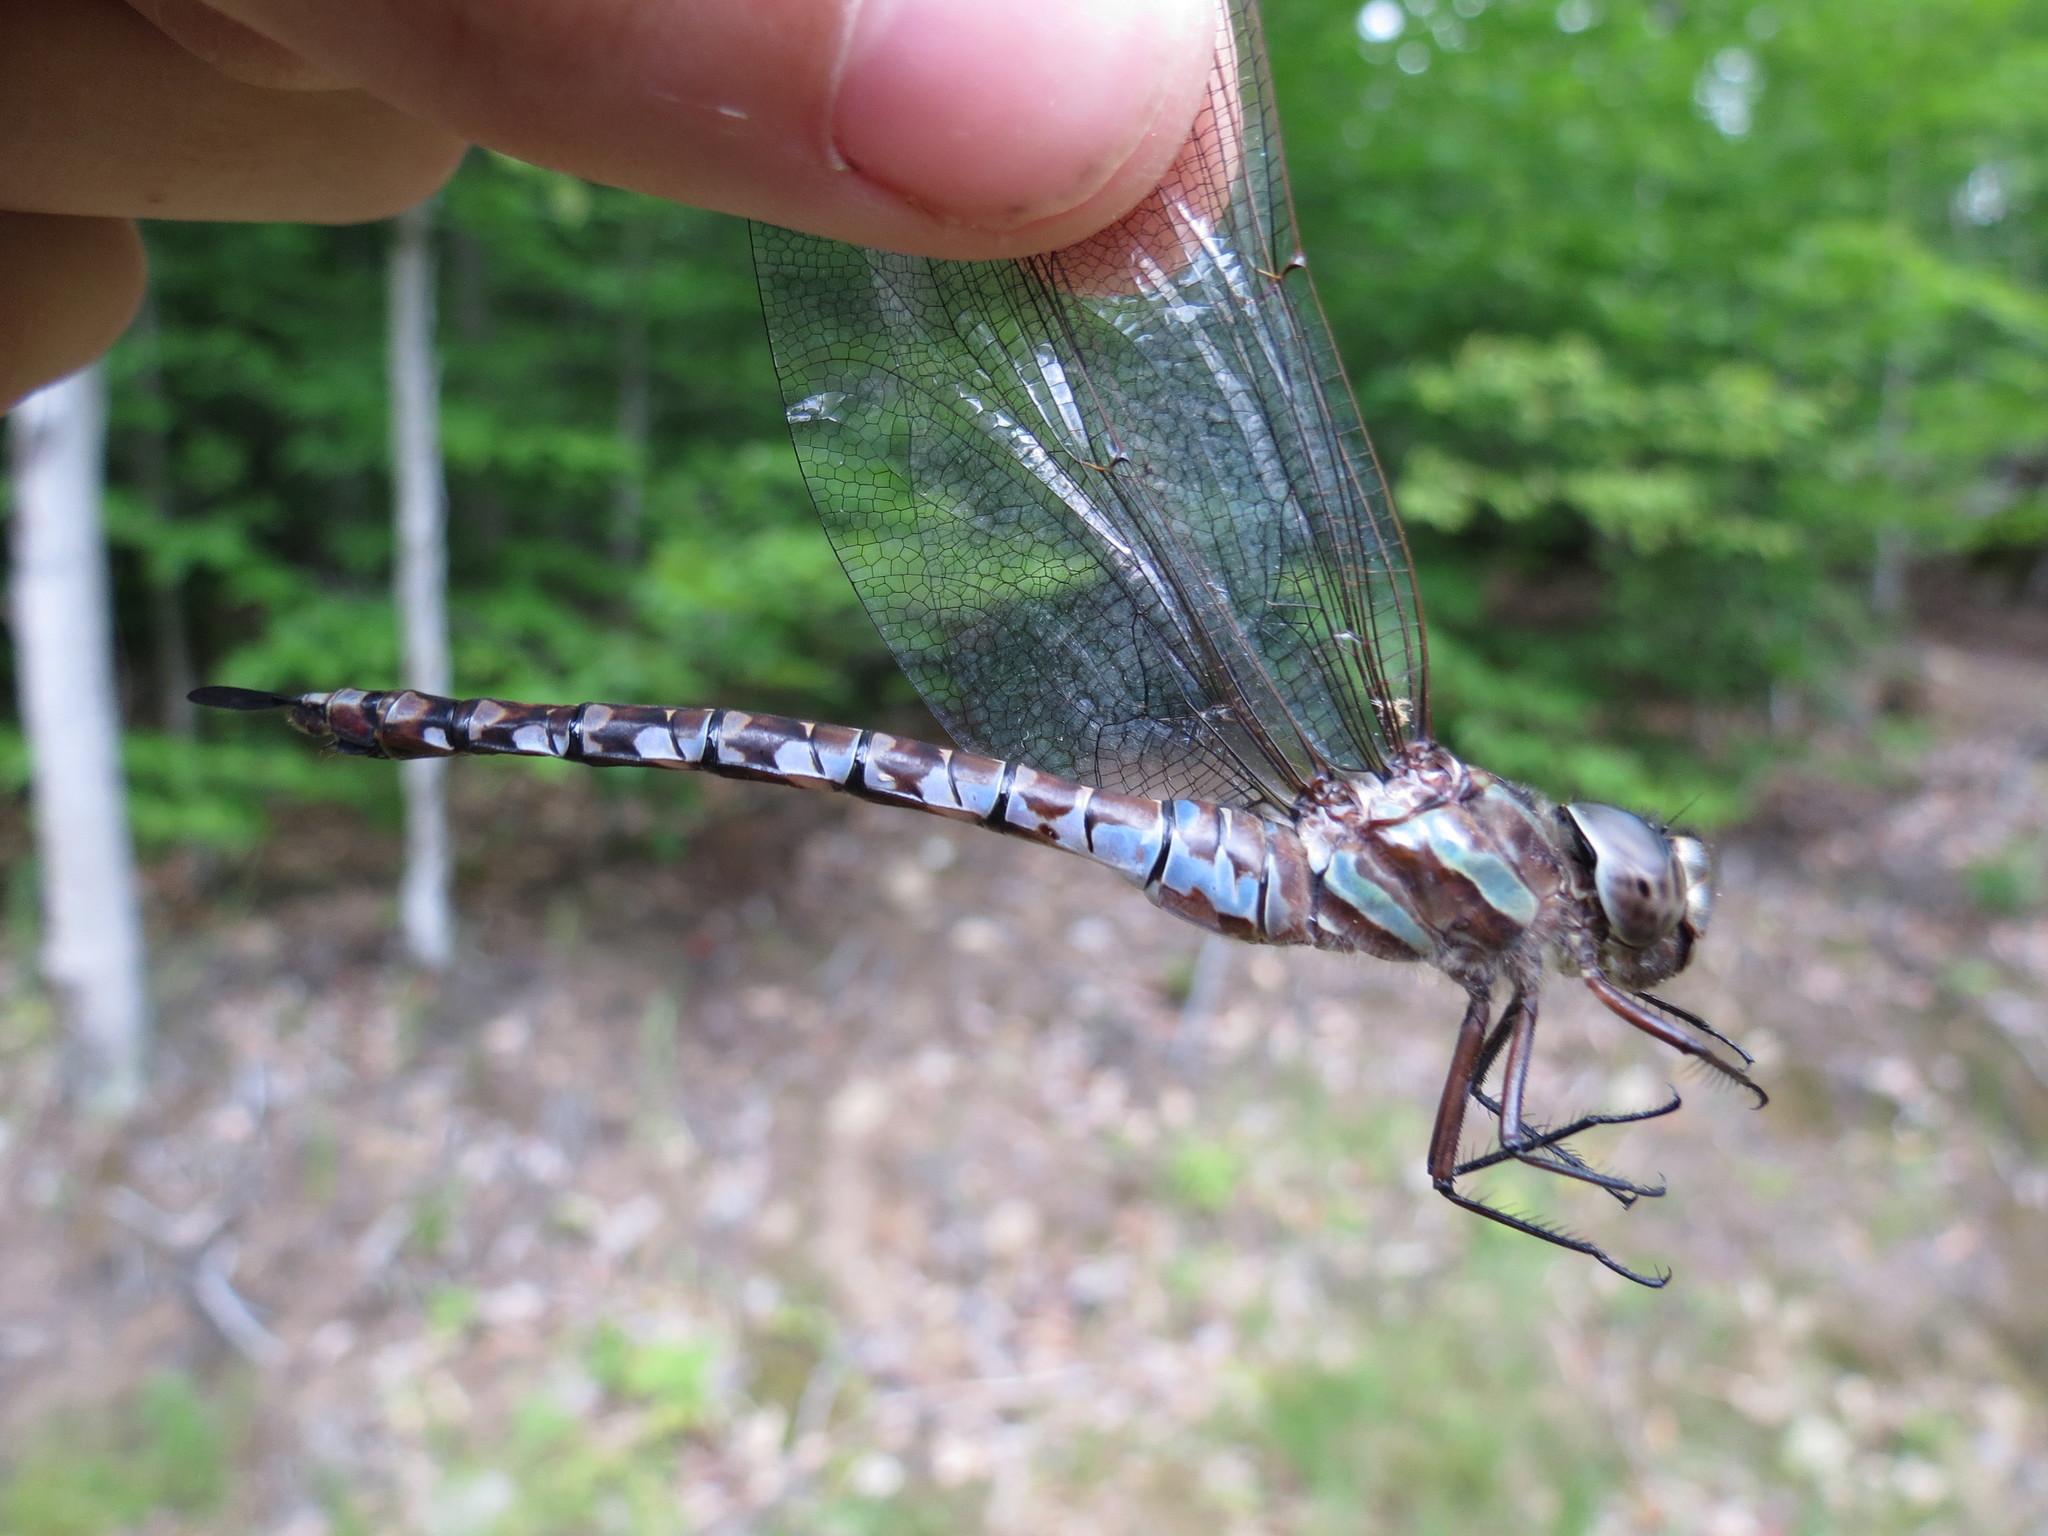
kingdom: Animalia
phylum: Arthropoda
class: Insecta
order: Odonata
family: Aeshnidae
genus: Aeshna
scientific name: Aeshna verticalis
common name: Green-striped darner
